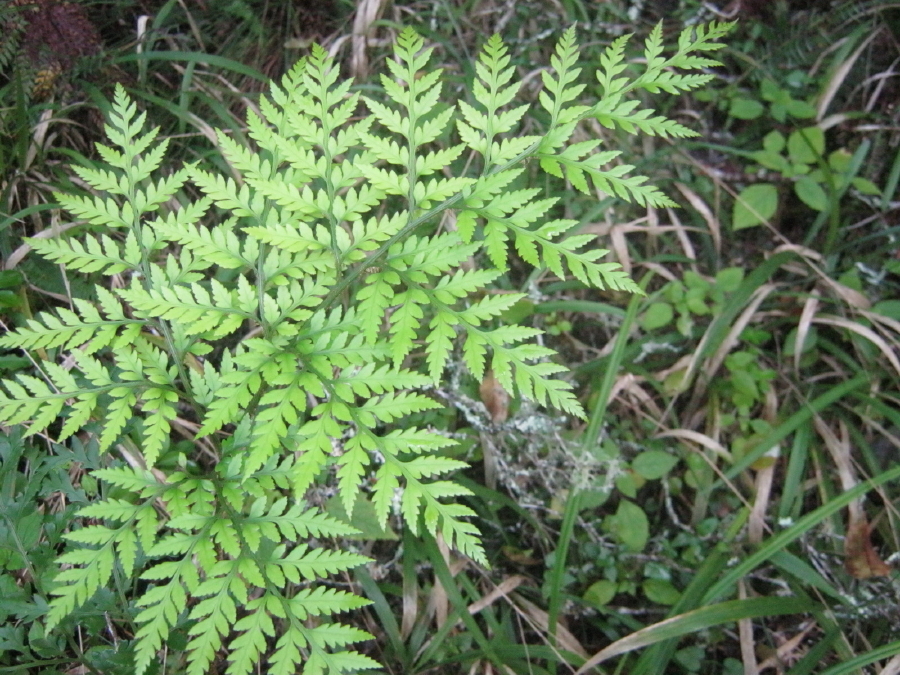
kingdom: Plantae
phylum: Tracheophyta
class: Polypodiopsida
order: Polypodiales
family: Dryopteridaceae
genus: Rumohra
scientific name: Rumohra adiantiformis
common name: Leather fern
